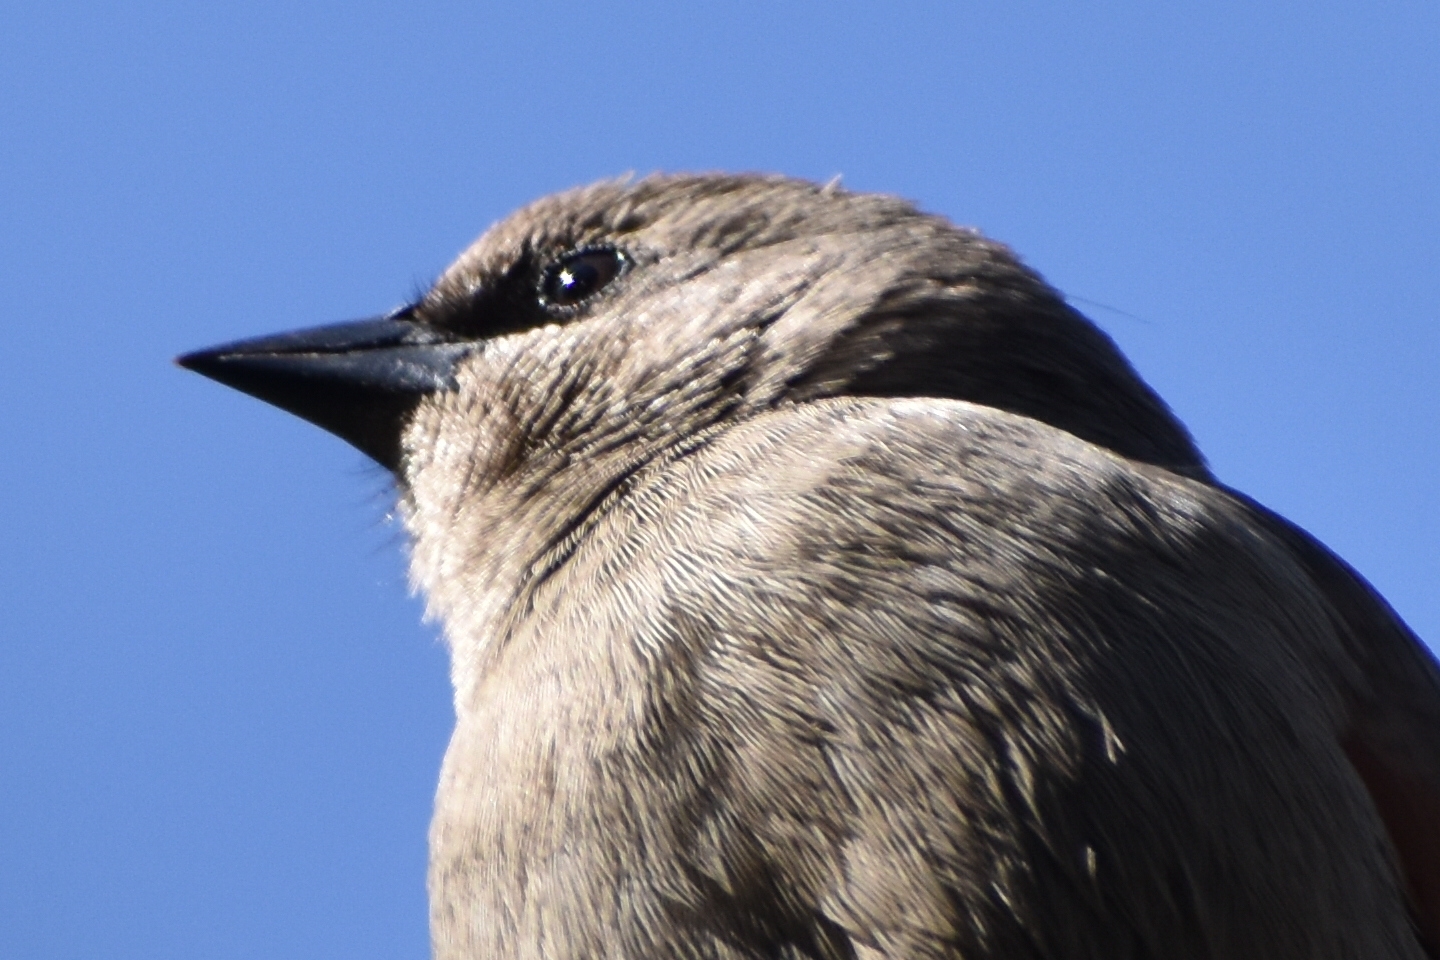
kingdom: Animalia
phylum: Chordata
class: Aves
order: Passeriformes
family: Icteridae
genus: Agelaioides
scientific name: Agelaioides badius
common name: Baywing
